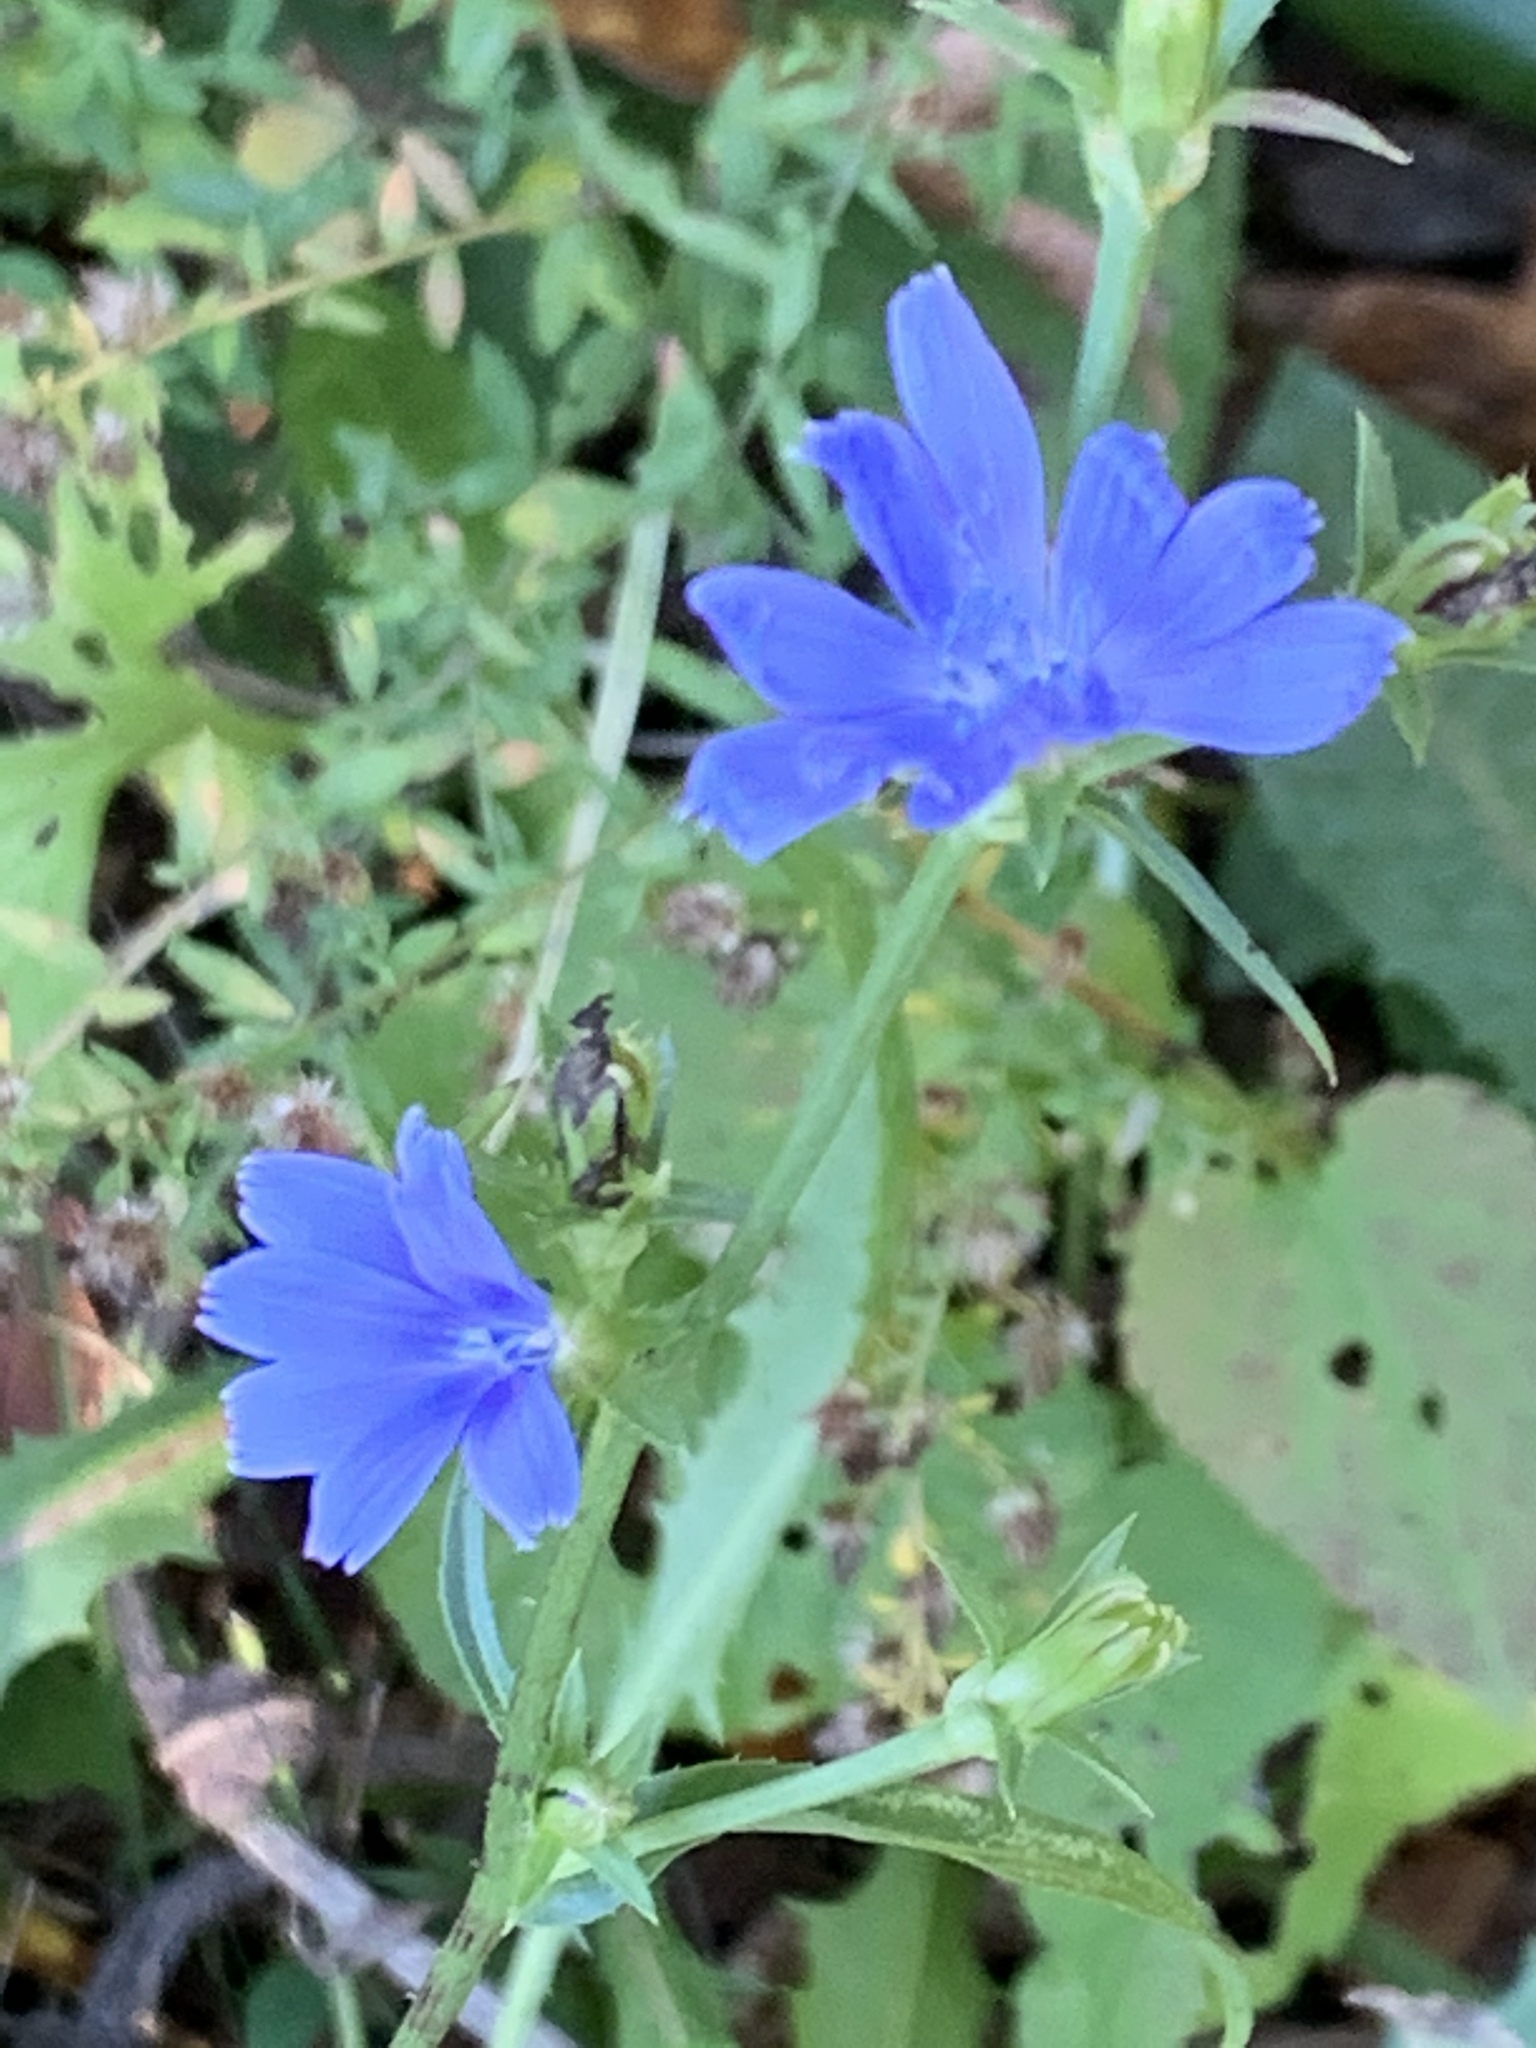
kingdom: Plantae
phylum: Tracheophyta
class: Magnoliopsida
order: Asterales
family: Asteraceae
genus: Cichorium
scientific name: Cichorium intybus
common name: Chicory
